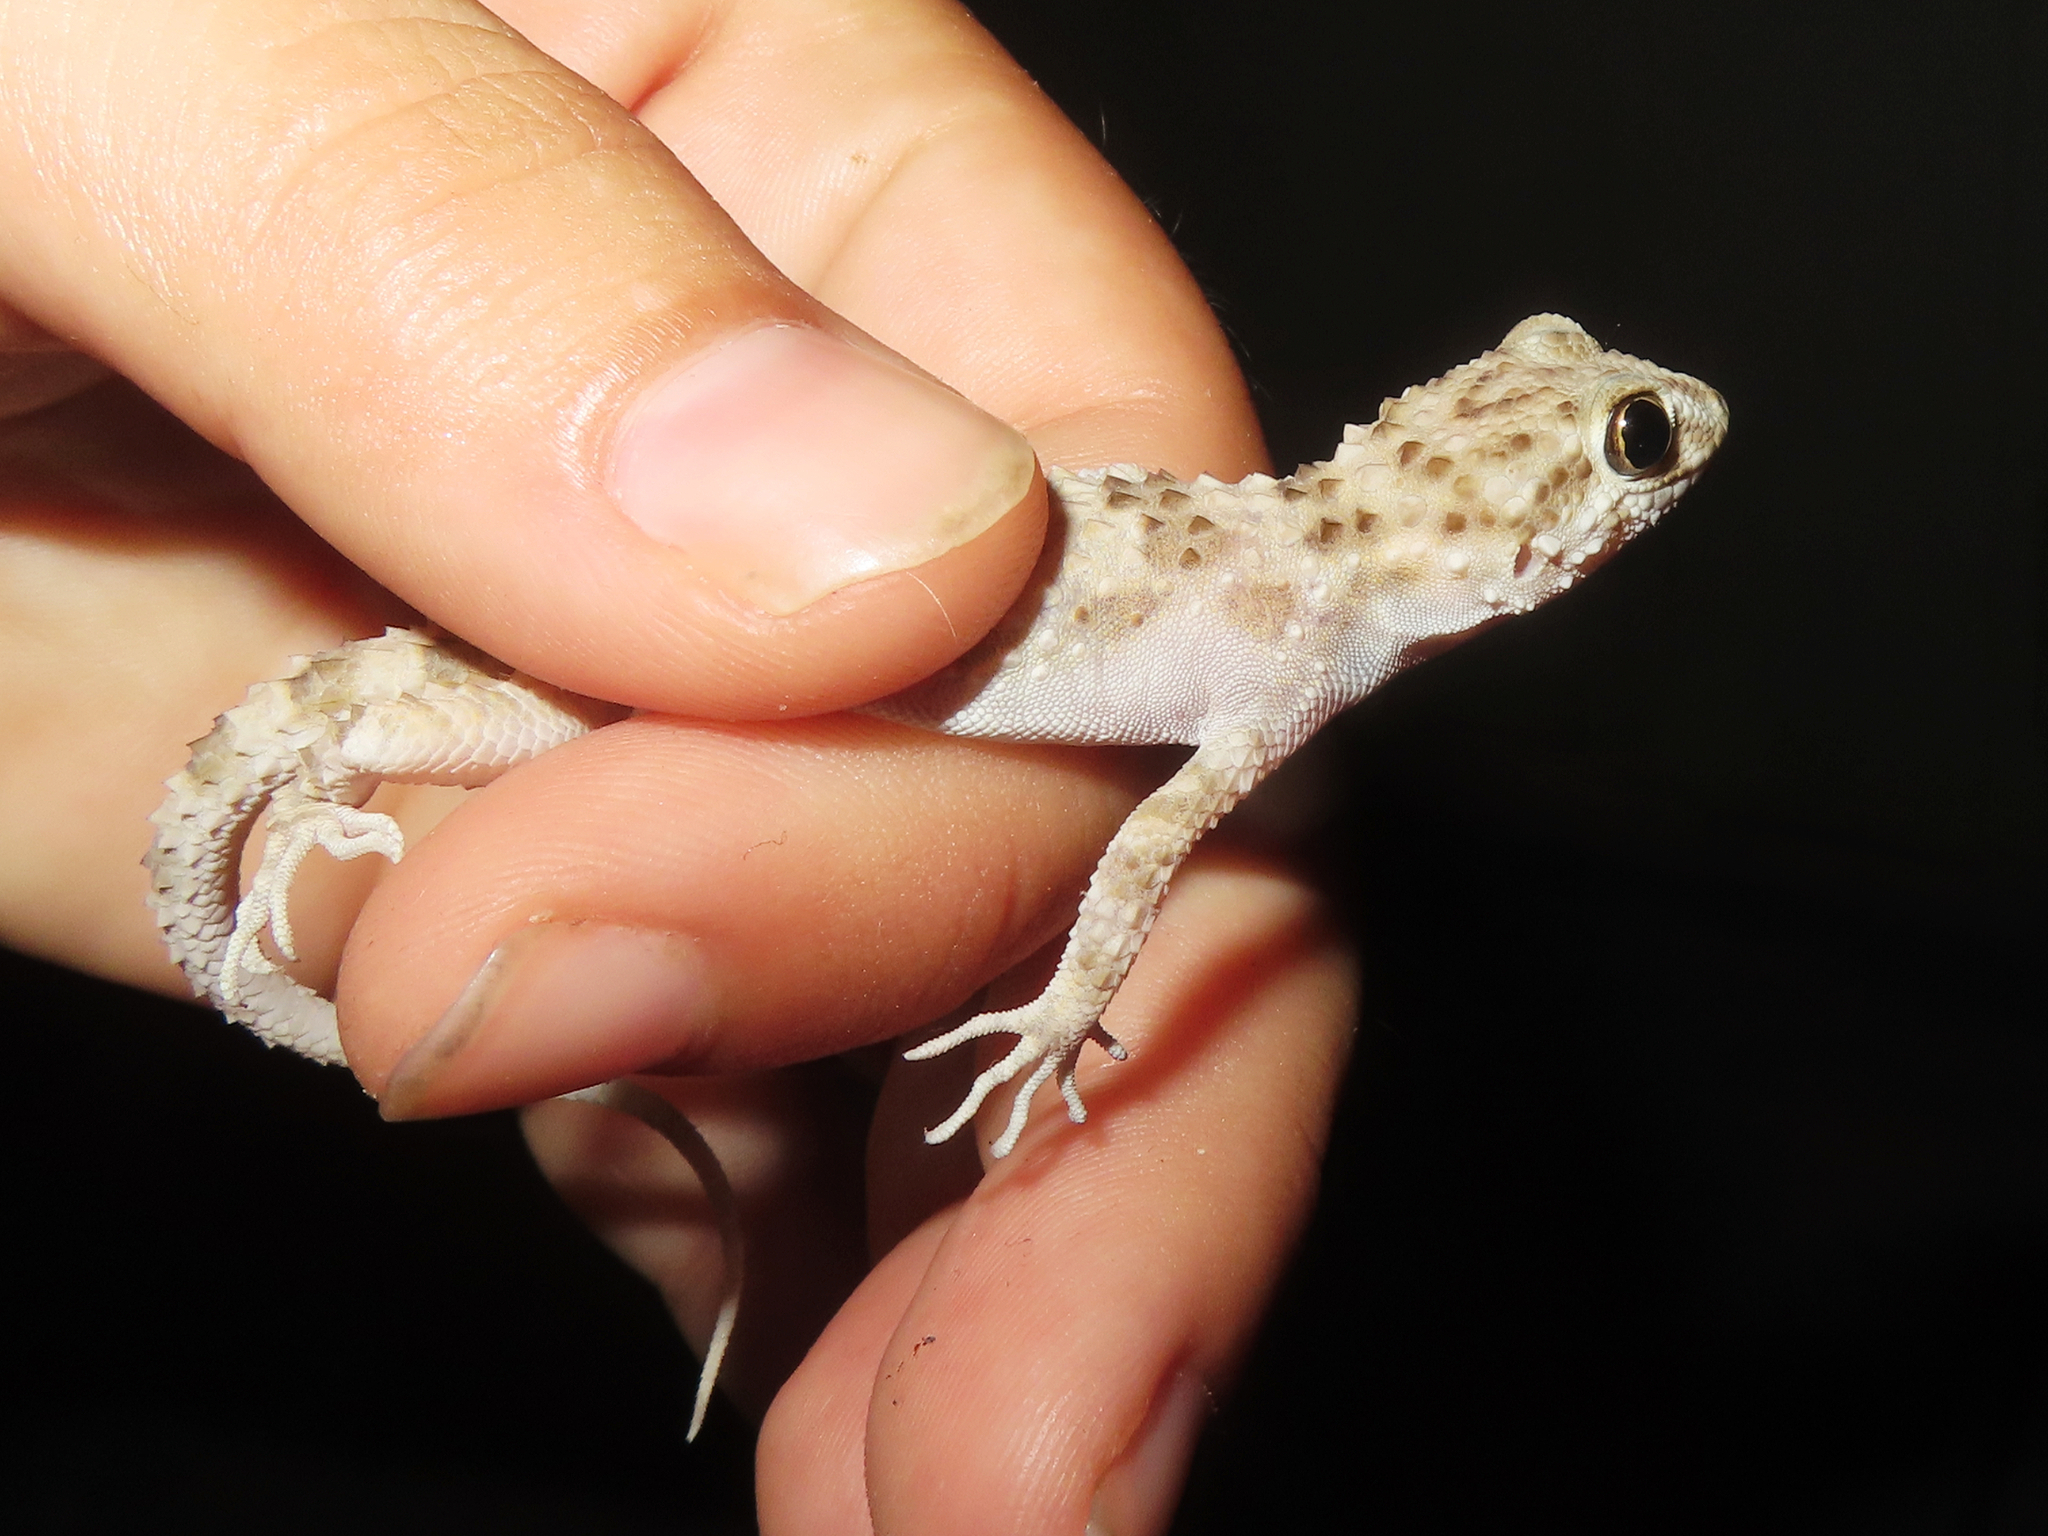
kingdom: Animalia
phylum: Chordata
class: Squamata
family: Gekkonidae
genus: Tenuidactylus
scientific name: Tenuidactylus caspius
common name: Caspian bent-toed gecko
